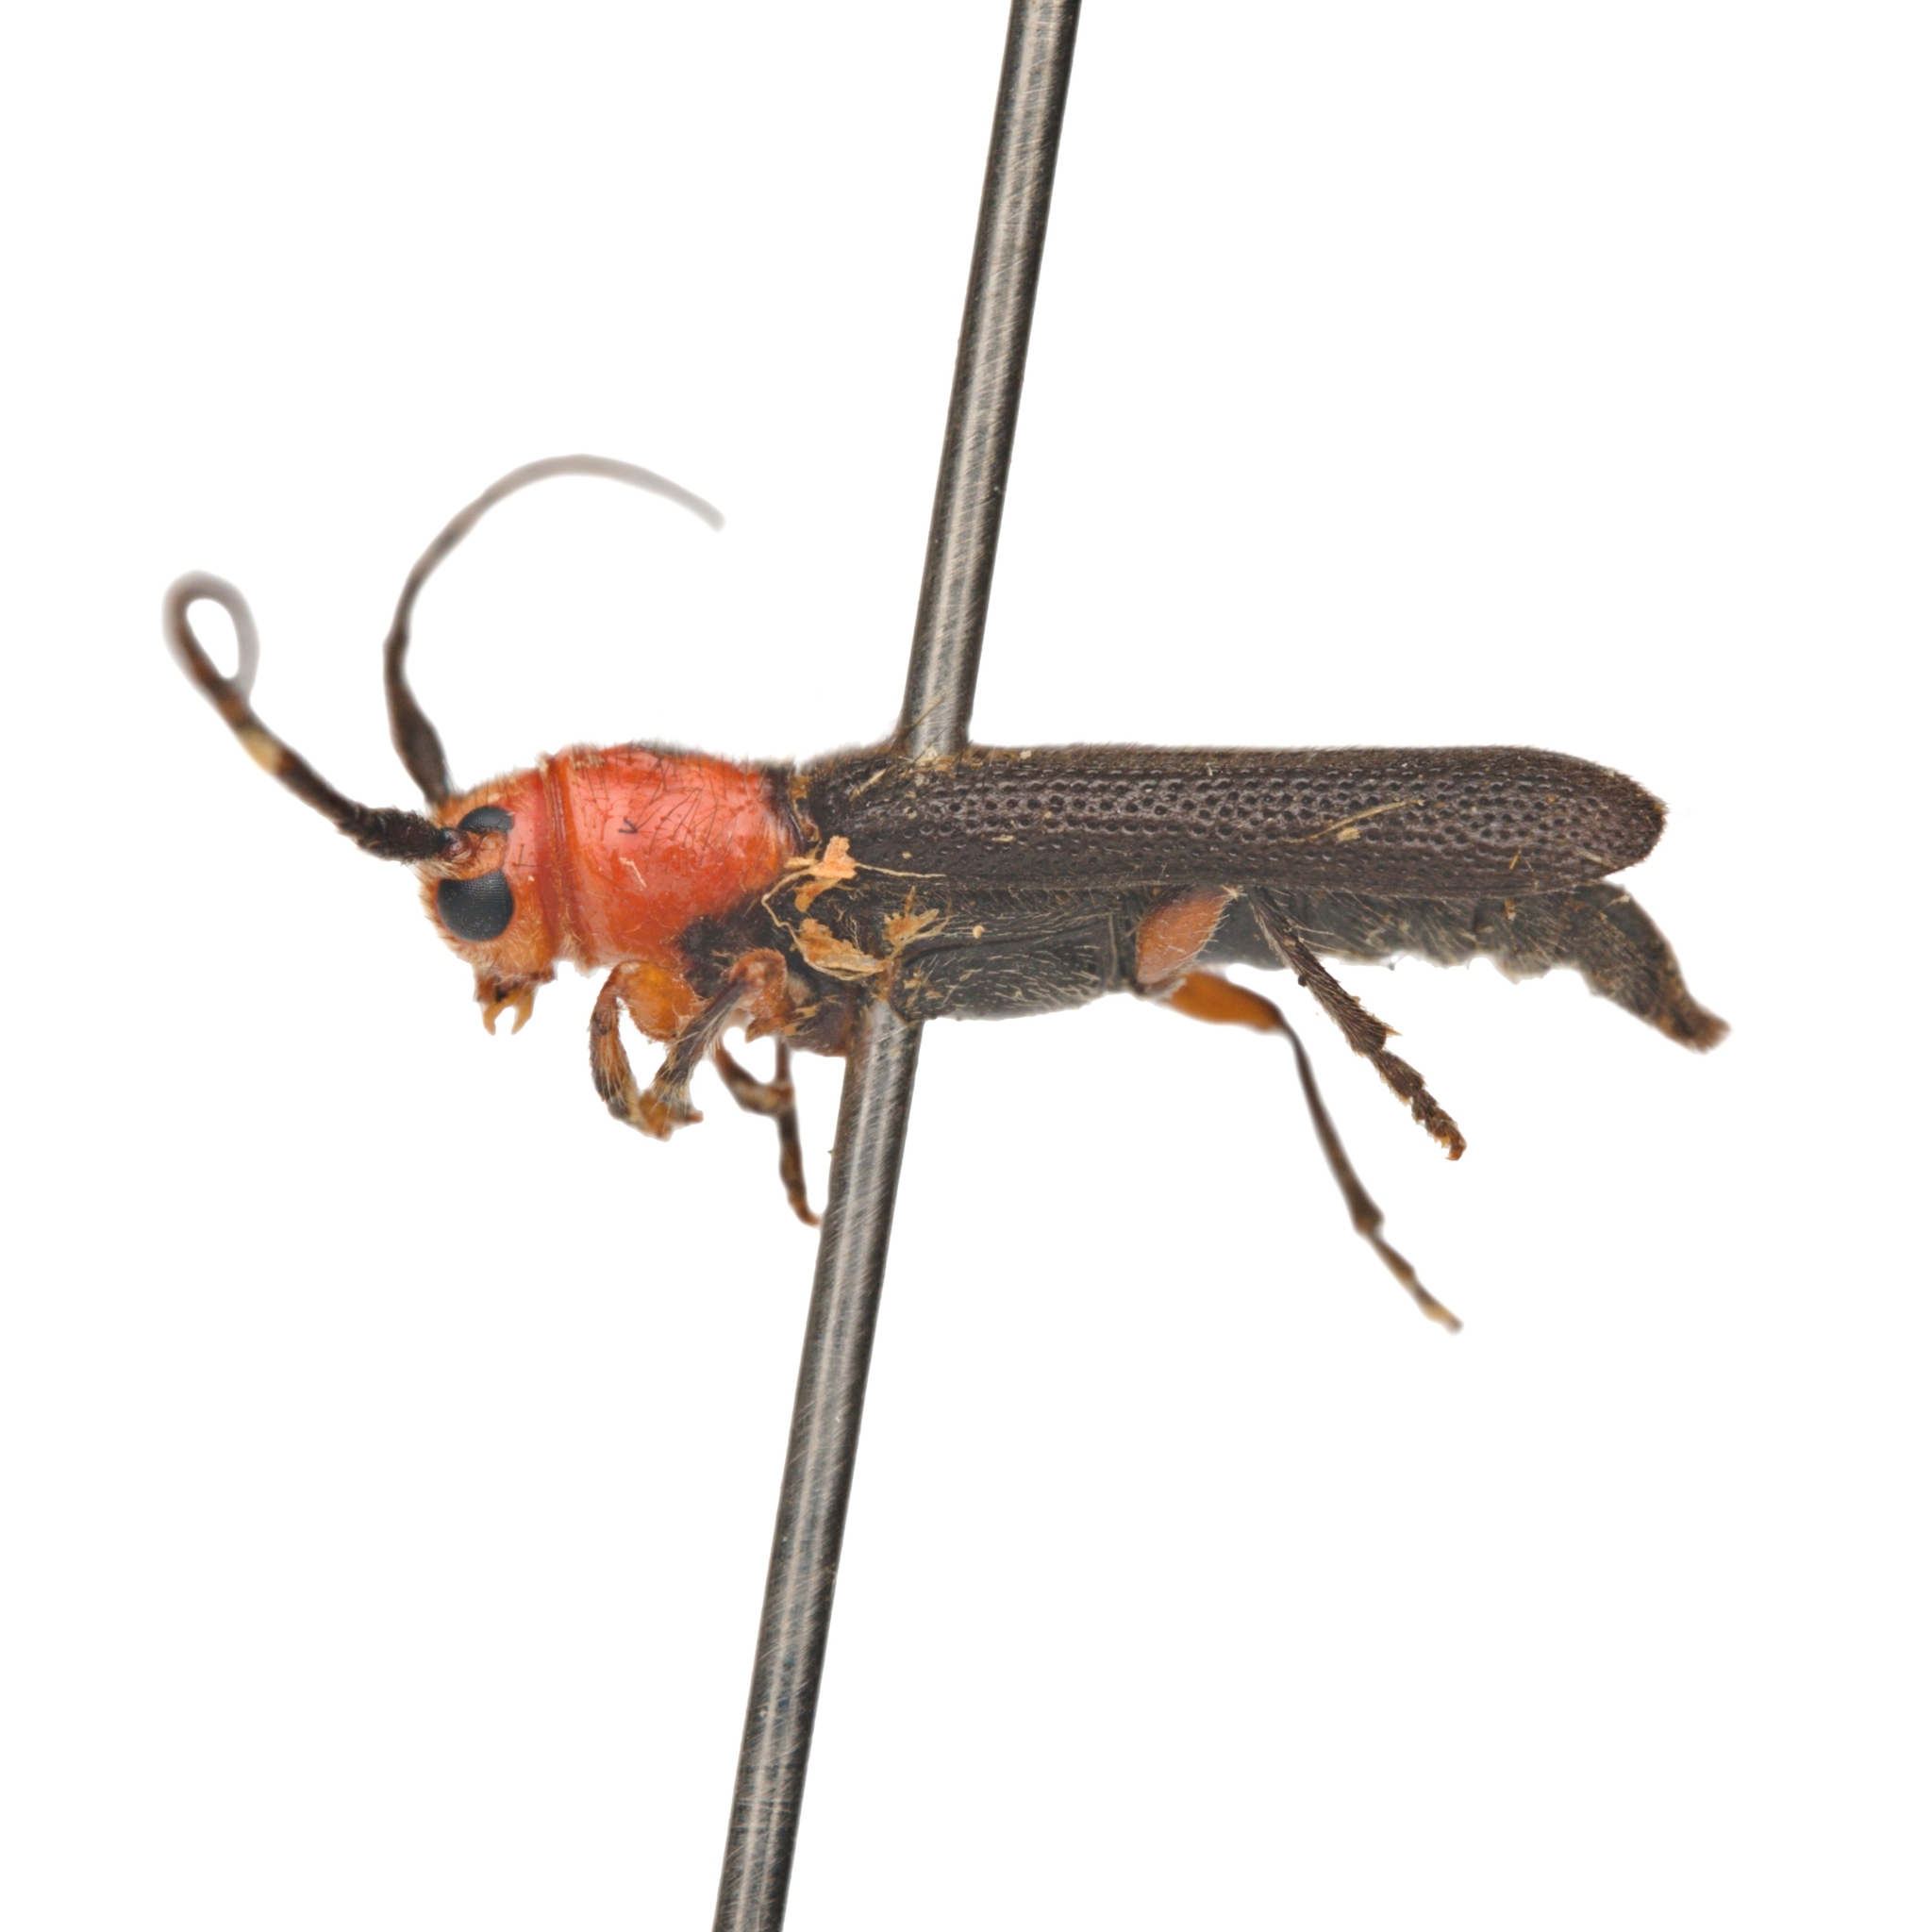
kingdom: Animalia
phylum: Arthropoda
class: Insecta
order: Coleoptera
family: Cerambycidae
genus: Phaea
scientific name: Phaea monostigma
